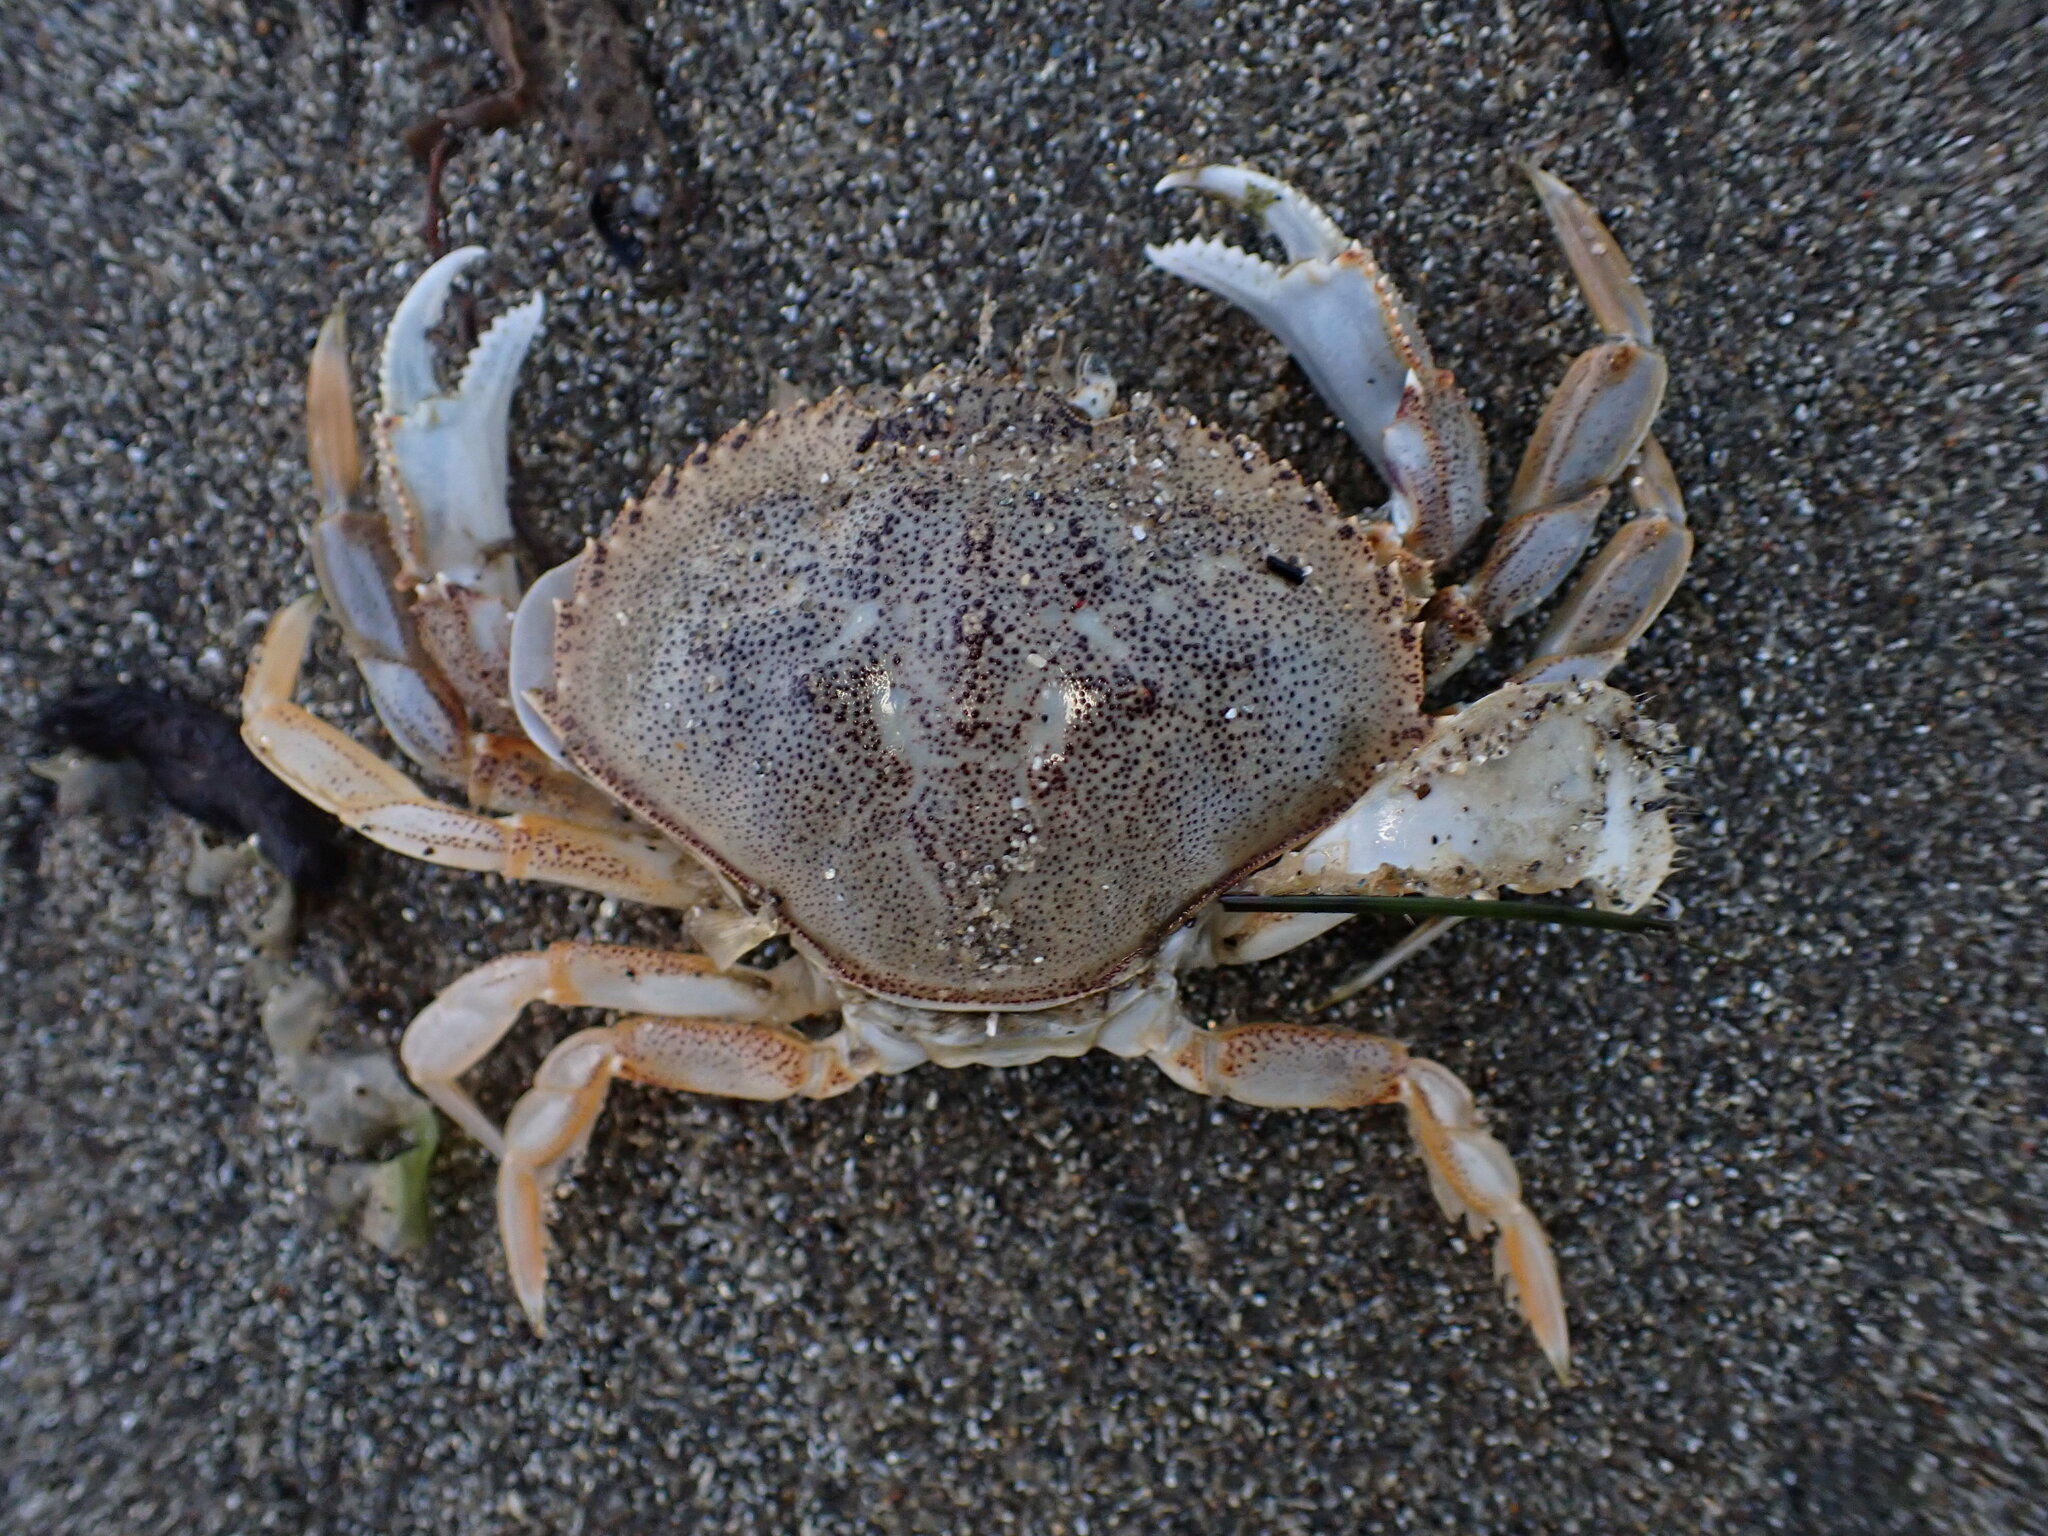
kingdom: Animalia
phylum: Arthropoda
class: Malacostraca
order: Decapoda
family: Cancridae
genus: Metacarcinus
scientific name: Metacarcinus magister
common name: Californian crab
